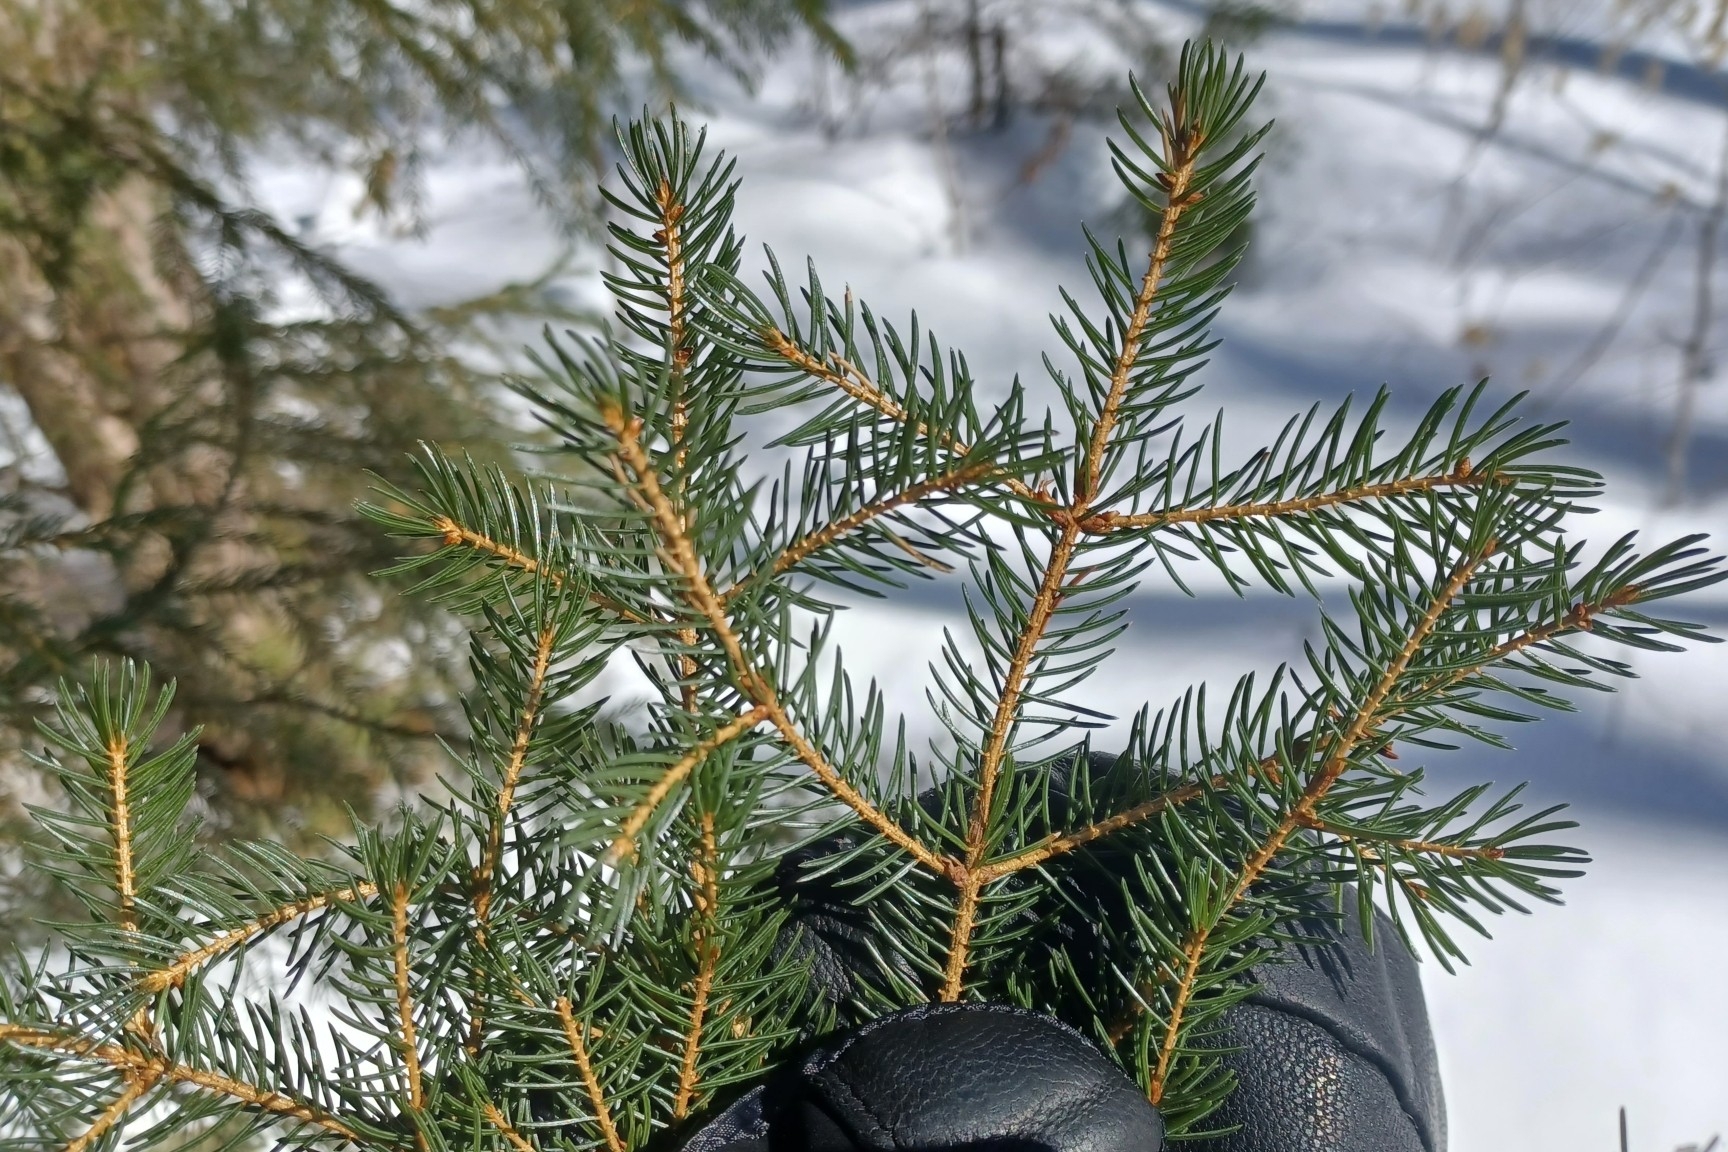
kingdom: Plantae
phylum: Tracheophyta
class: Pinopsida
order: Pinales
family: Pinaceae
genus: Picea
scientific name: Picea rubens
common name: Red spruce
